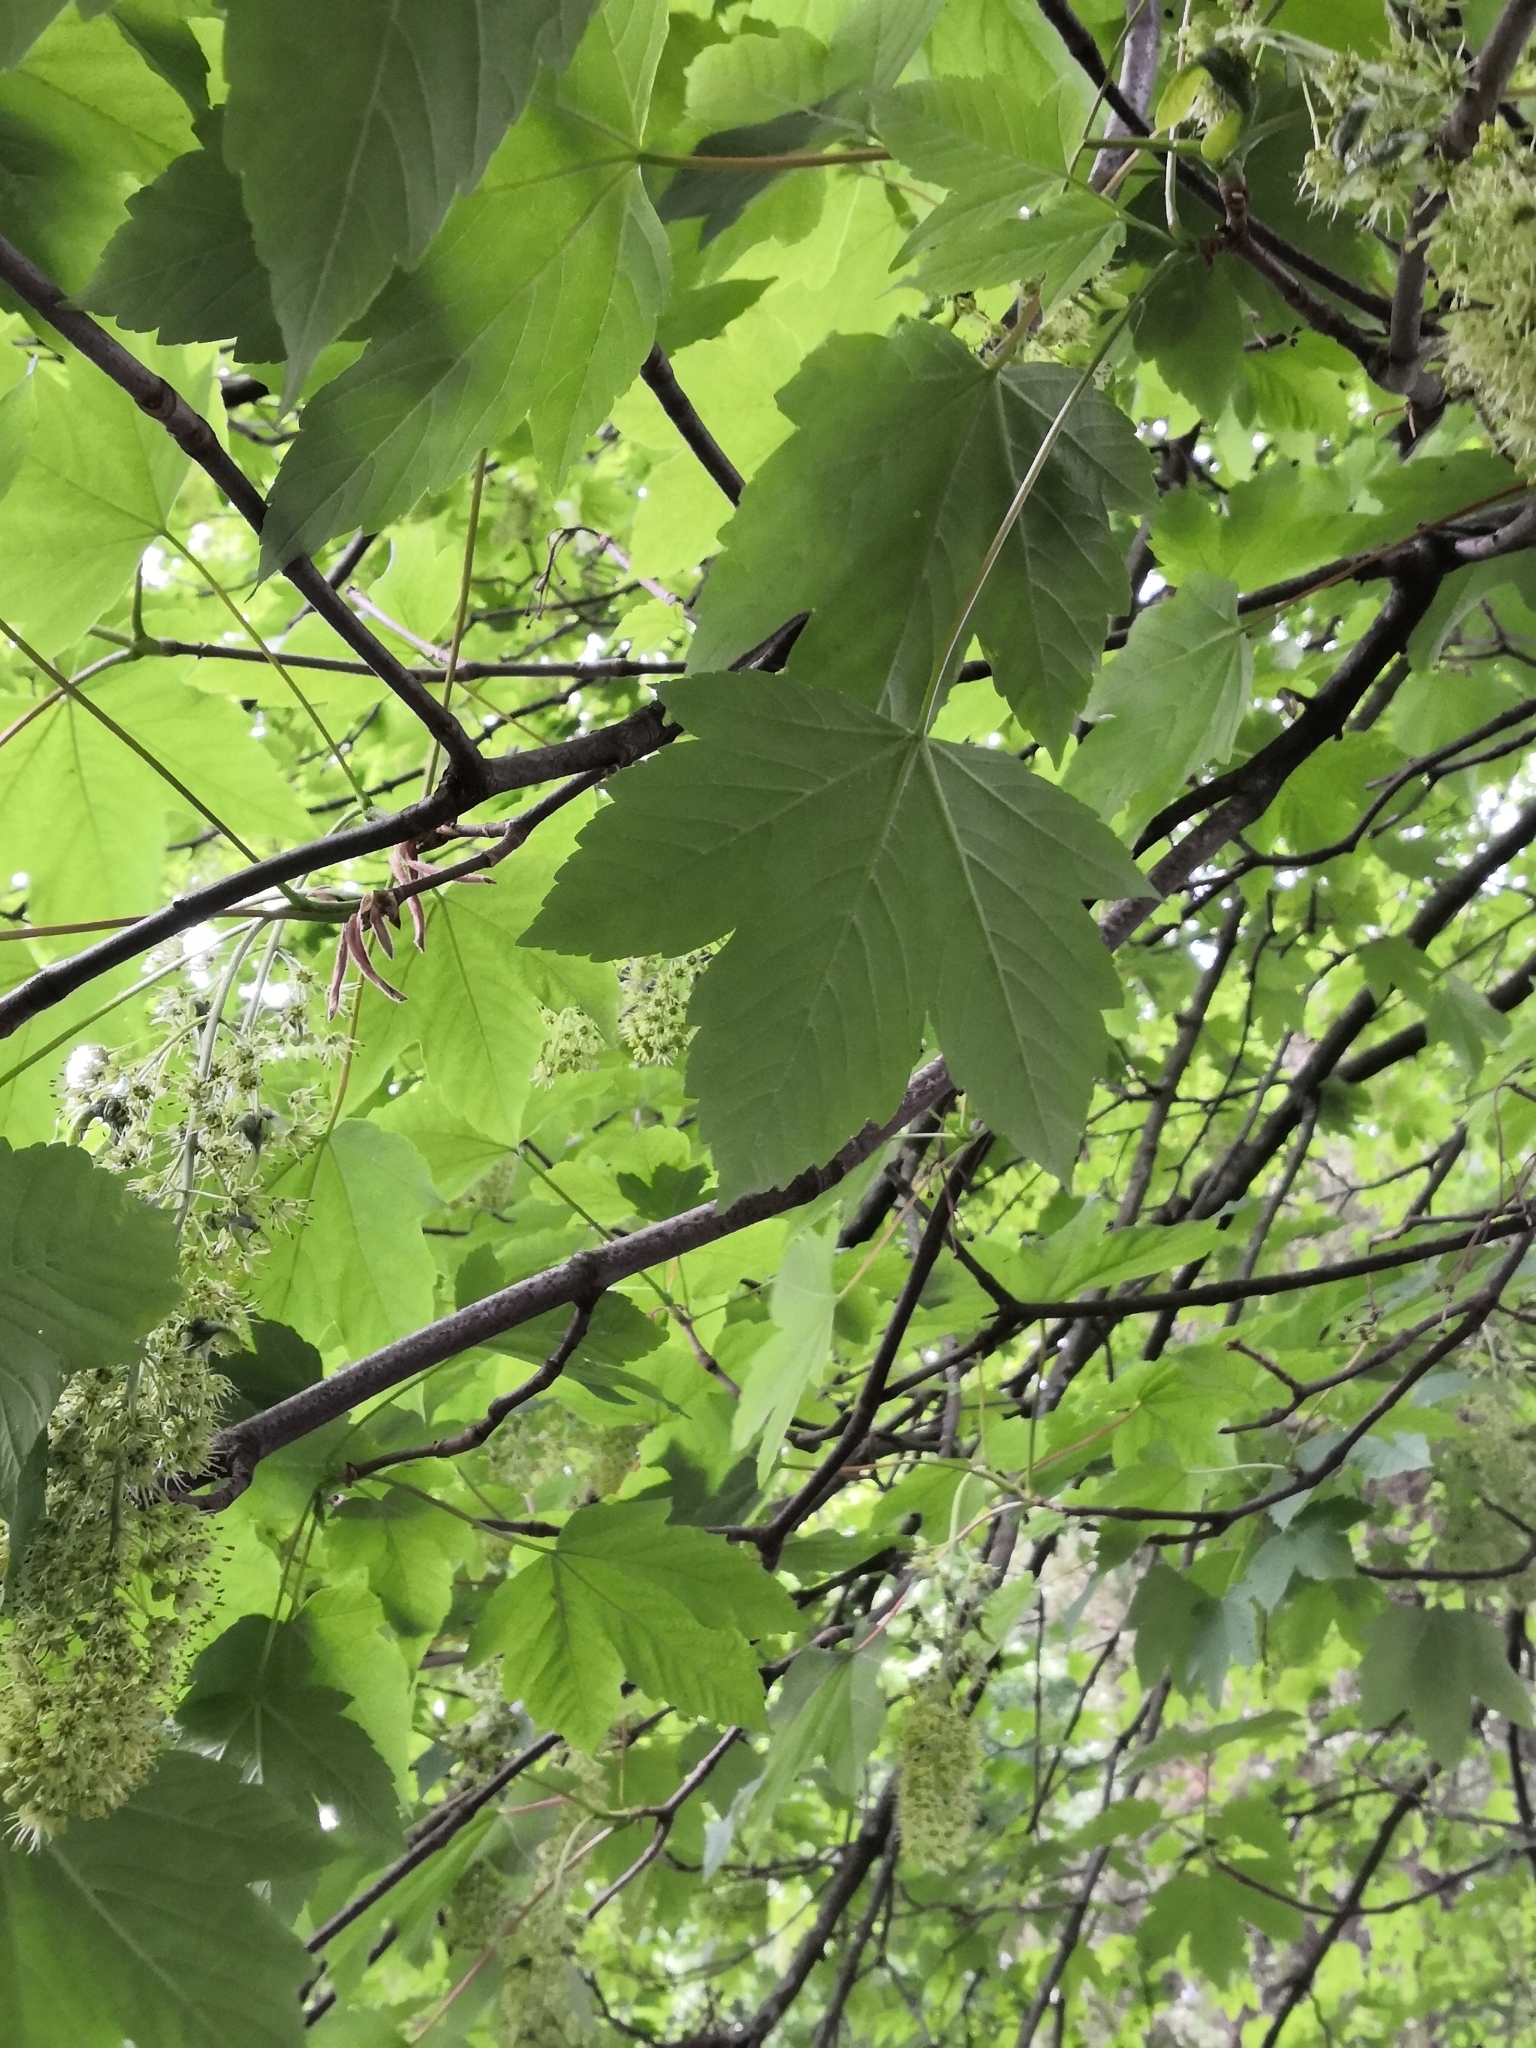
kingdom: Plantae
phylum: Tracheophyta
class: Magnoliopsida
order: Sapindales
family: Sapindaceae
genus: Acer
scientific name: Acer pseudoplatanus
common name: Sycamore
